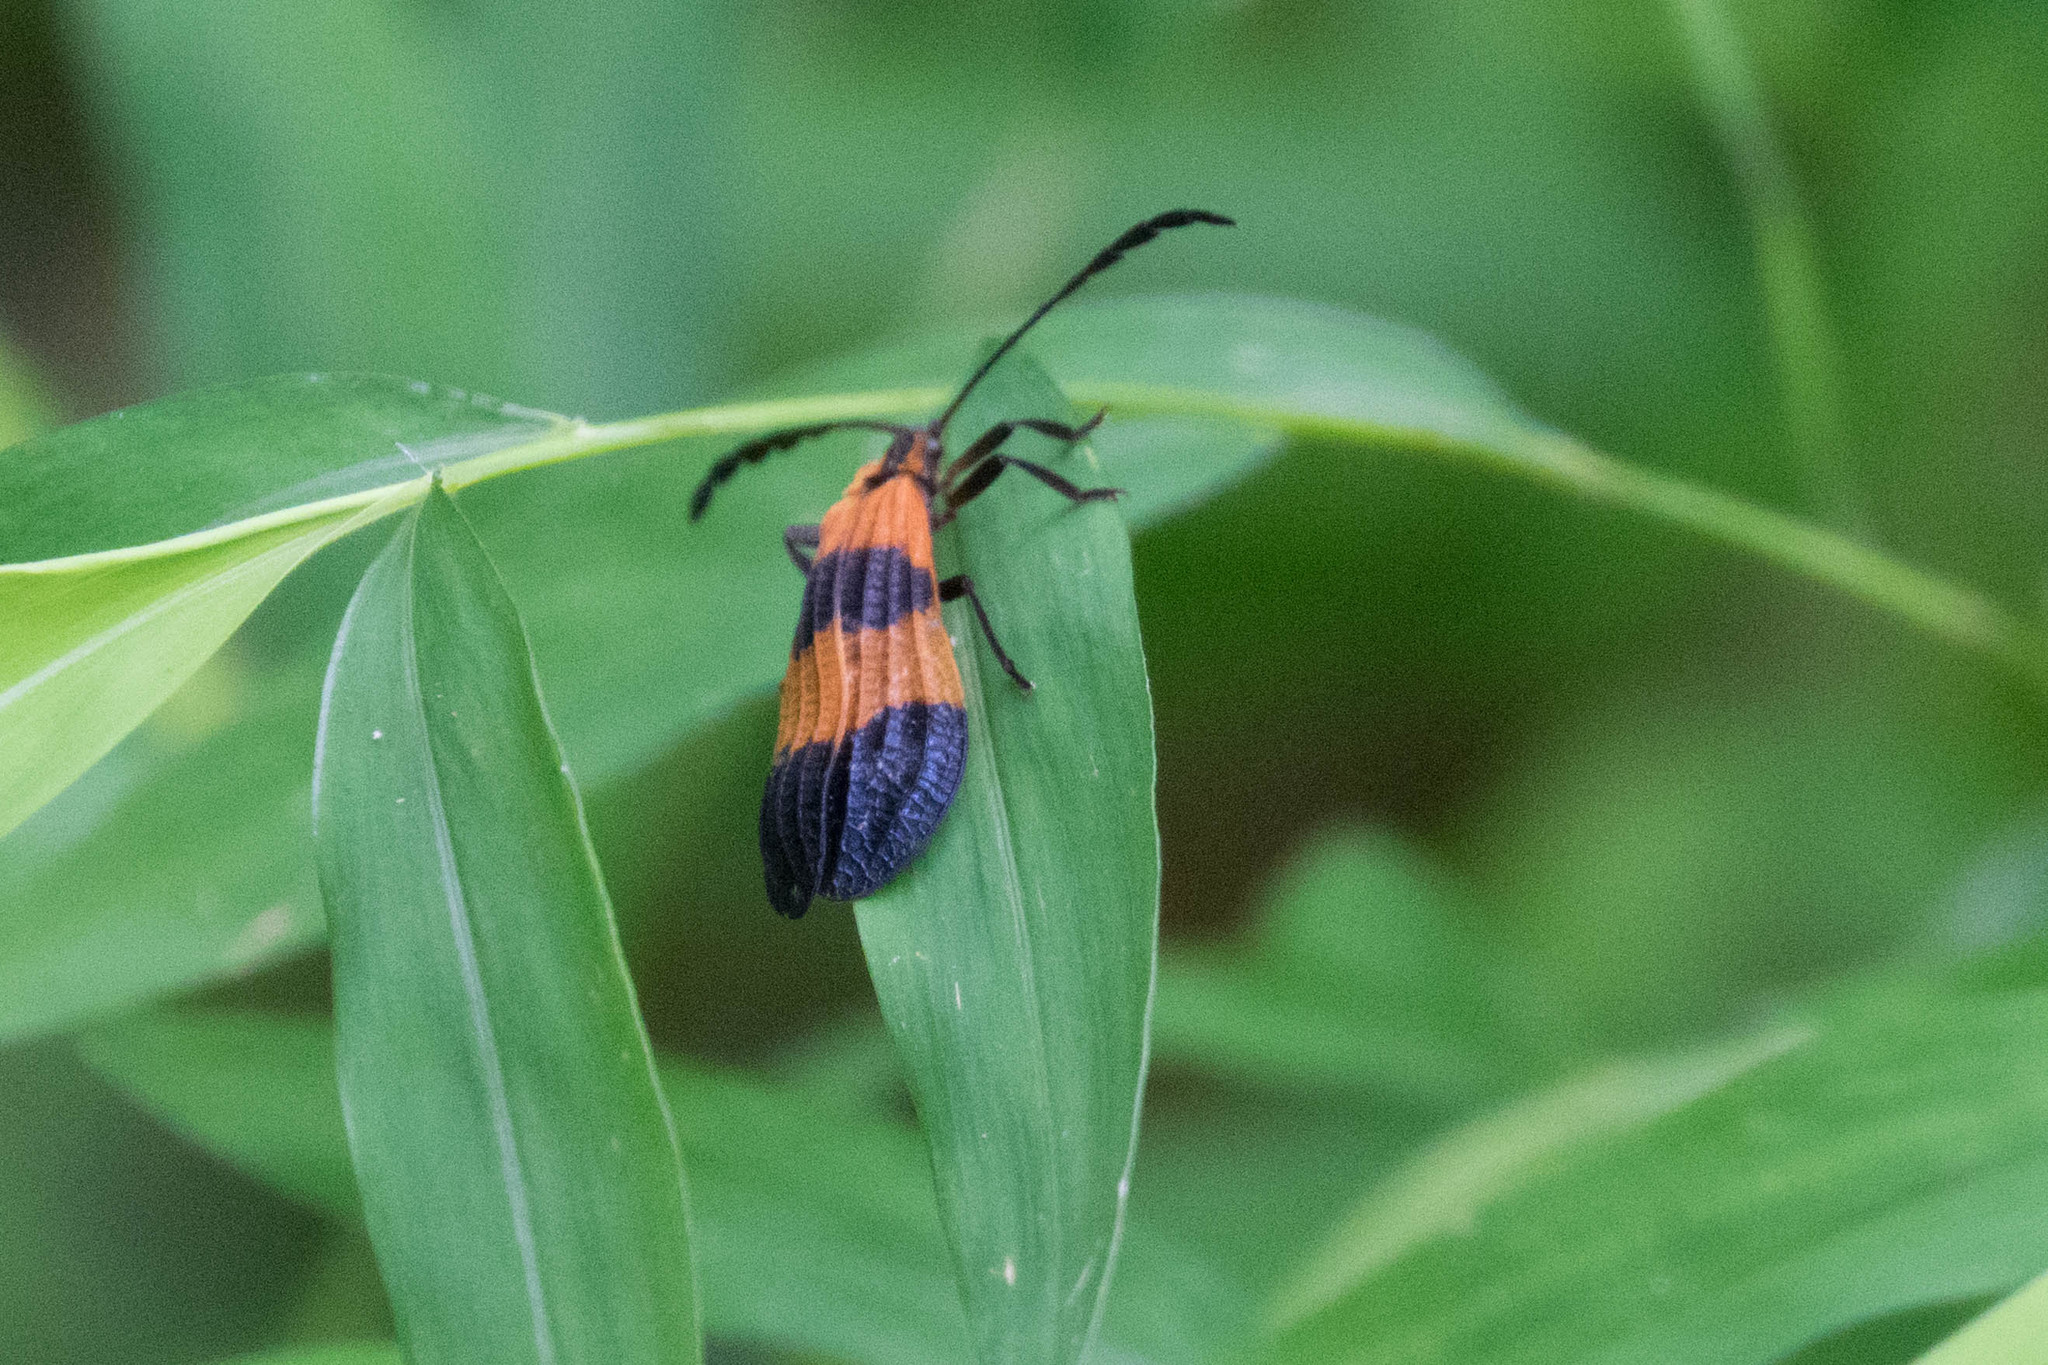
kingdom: Animalia
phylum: Arthropoda
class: Insecta
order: Coleoptera
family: Lycidae
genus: Calopteron
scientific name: Calopteron terminale
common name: End band net-winged beetle
